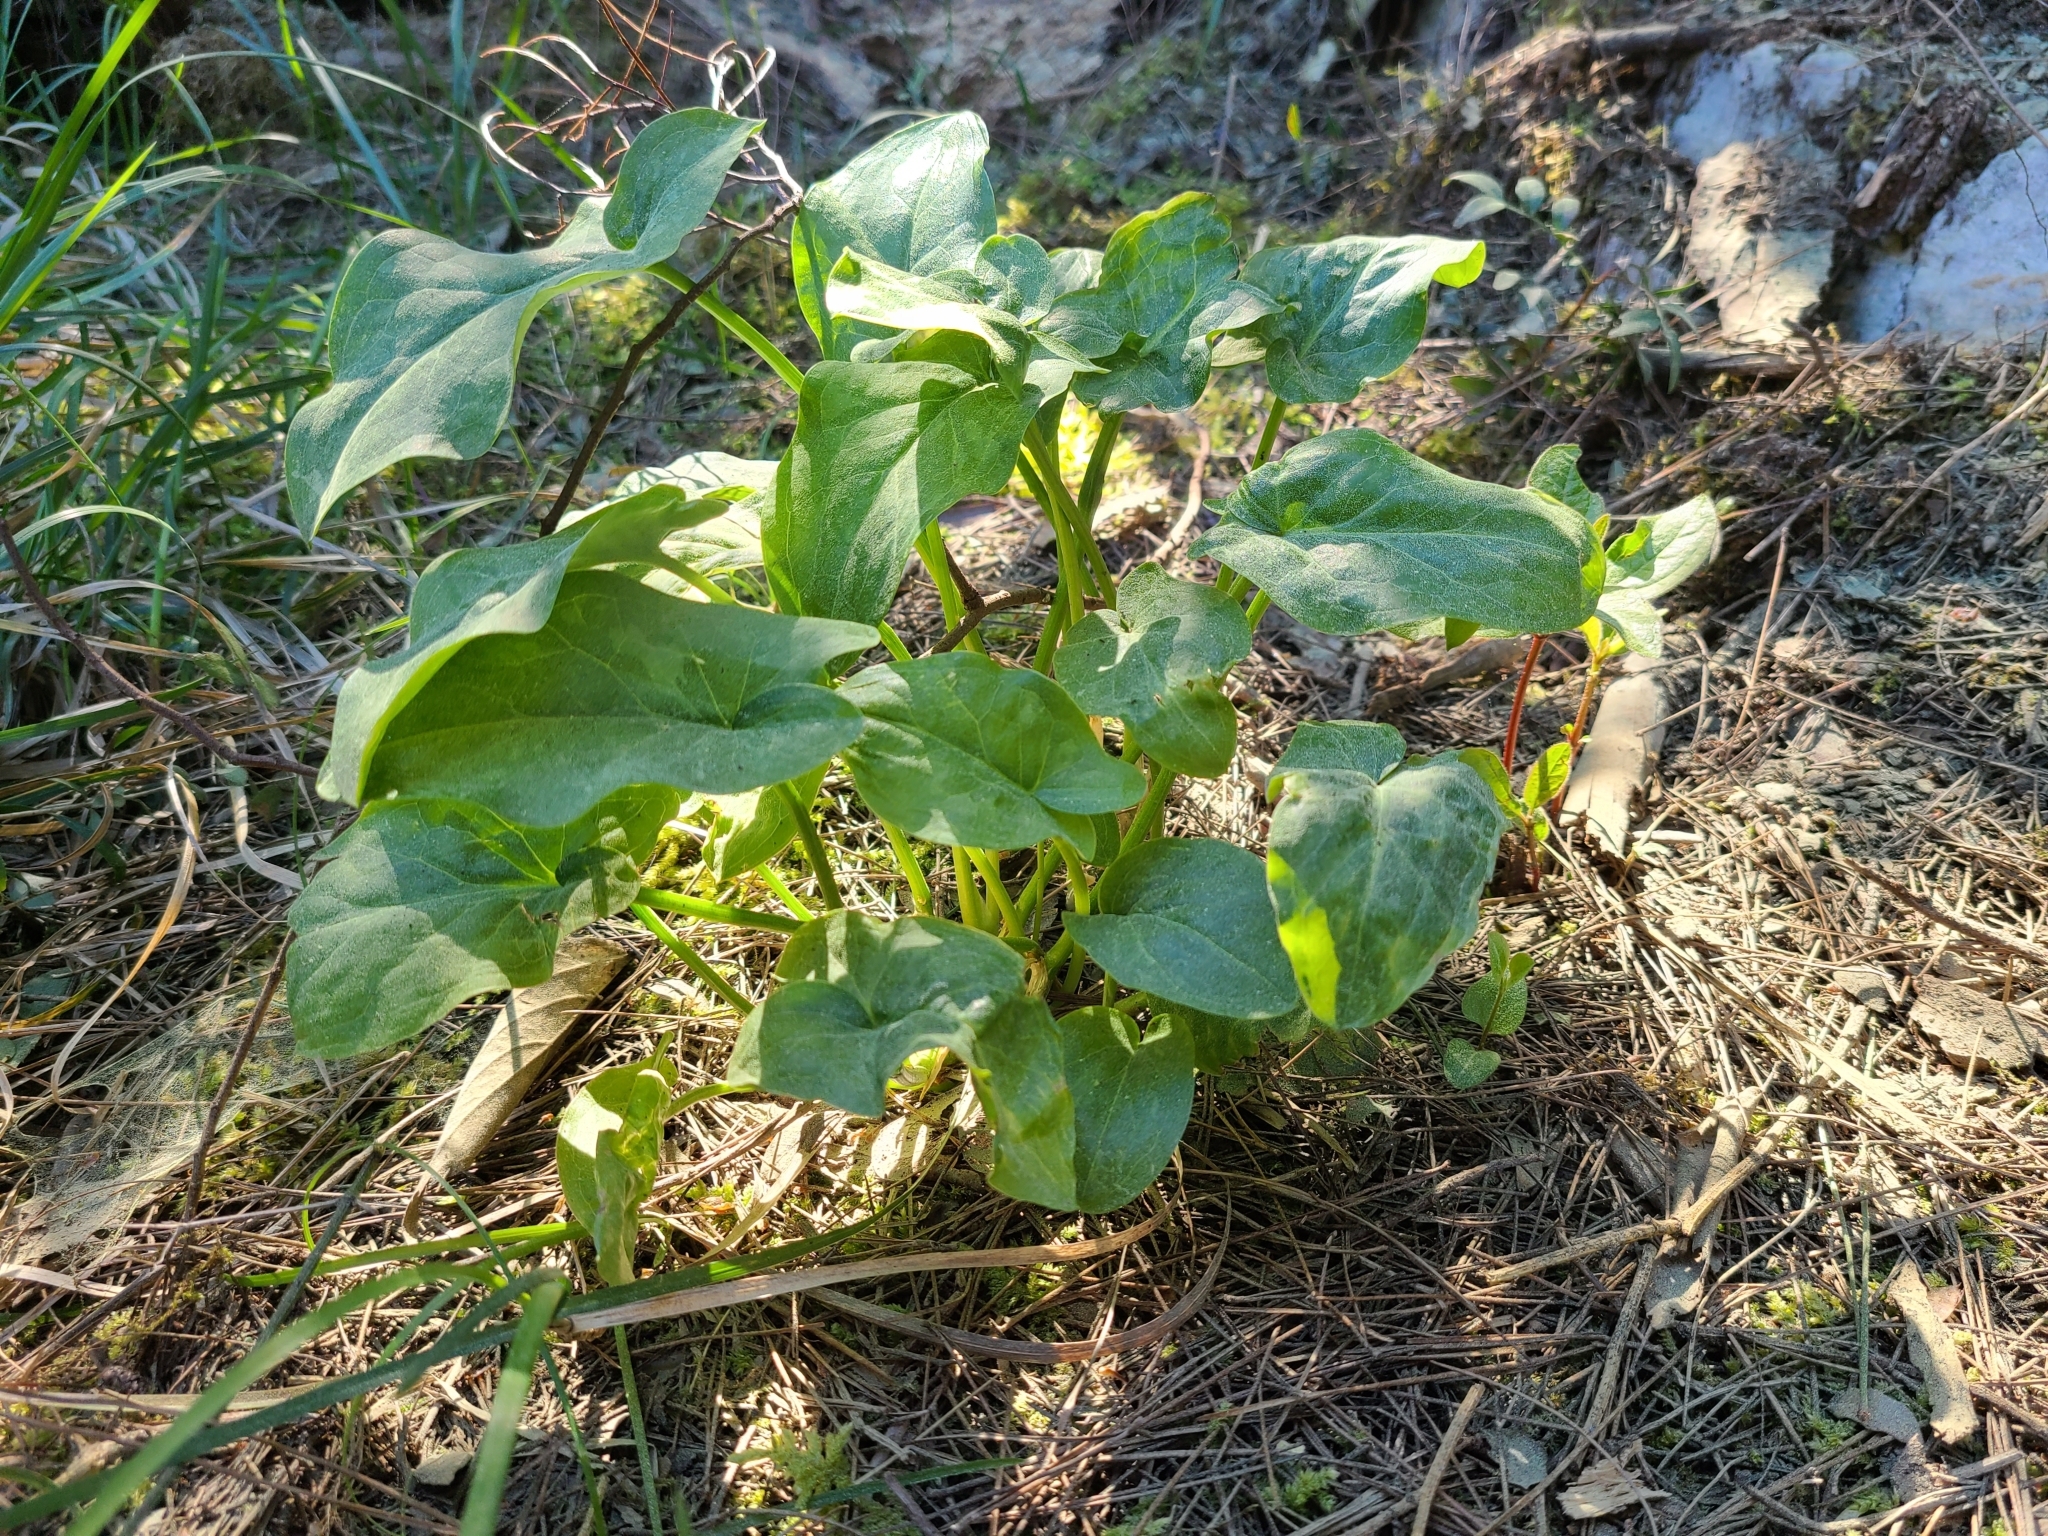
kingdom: Plantae
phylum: Tracheophyta
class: Liliopsida
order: Alismatales
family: Araceae
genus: Arum
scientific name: Arum italicum
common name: Italian lords-and-ladies
